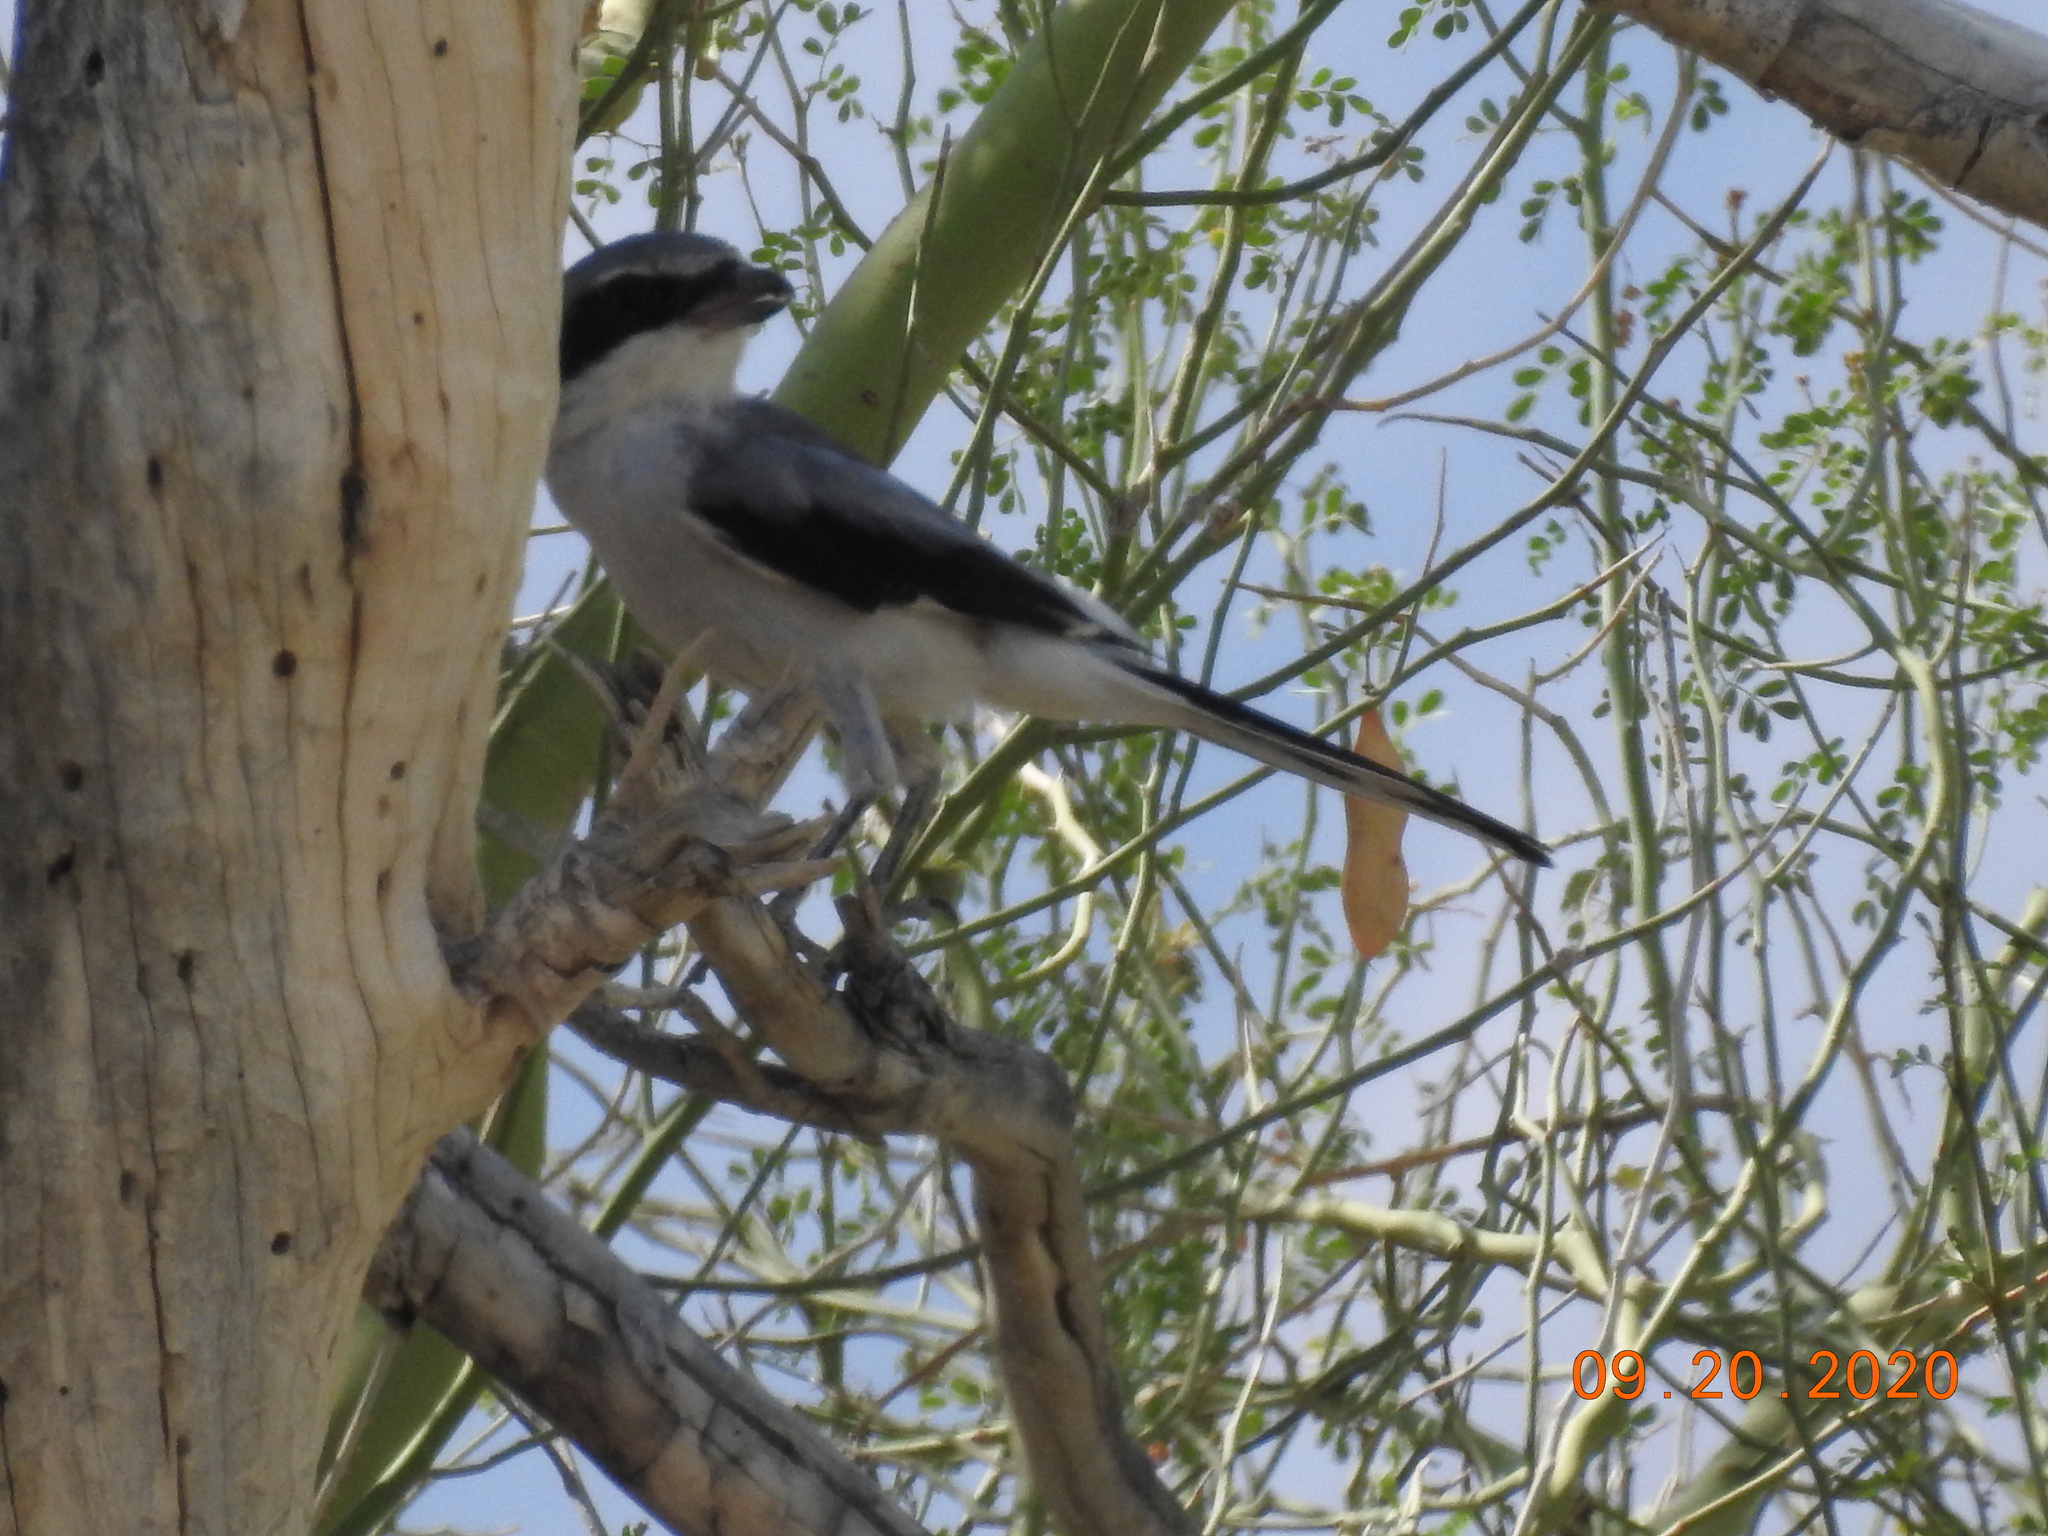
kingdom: Animalia
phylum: Chordata
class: Aves
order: Passeriformes
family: Laniidae
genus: Lanius
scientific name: Lanius ludovicianus
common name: Loggerhead shrike
